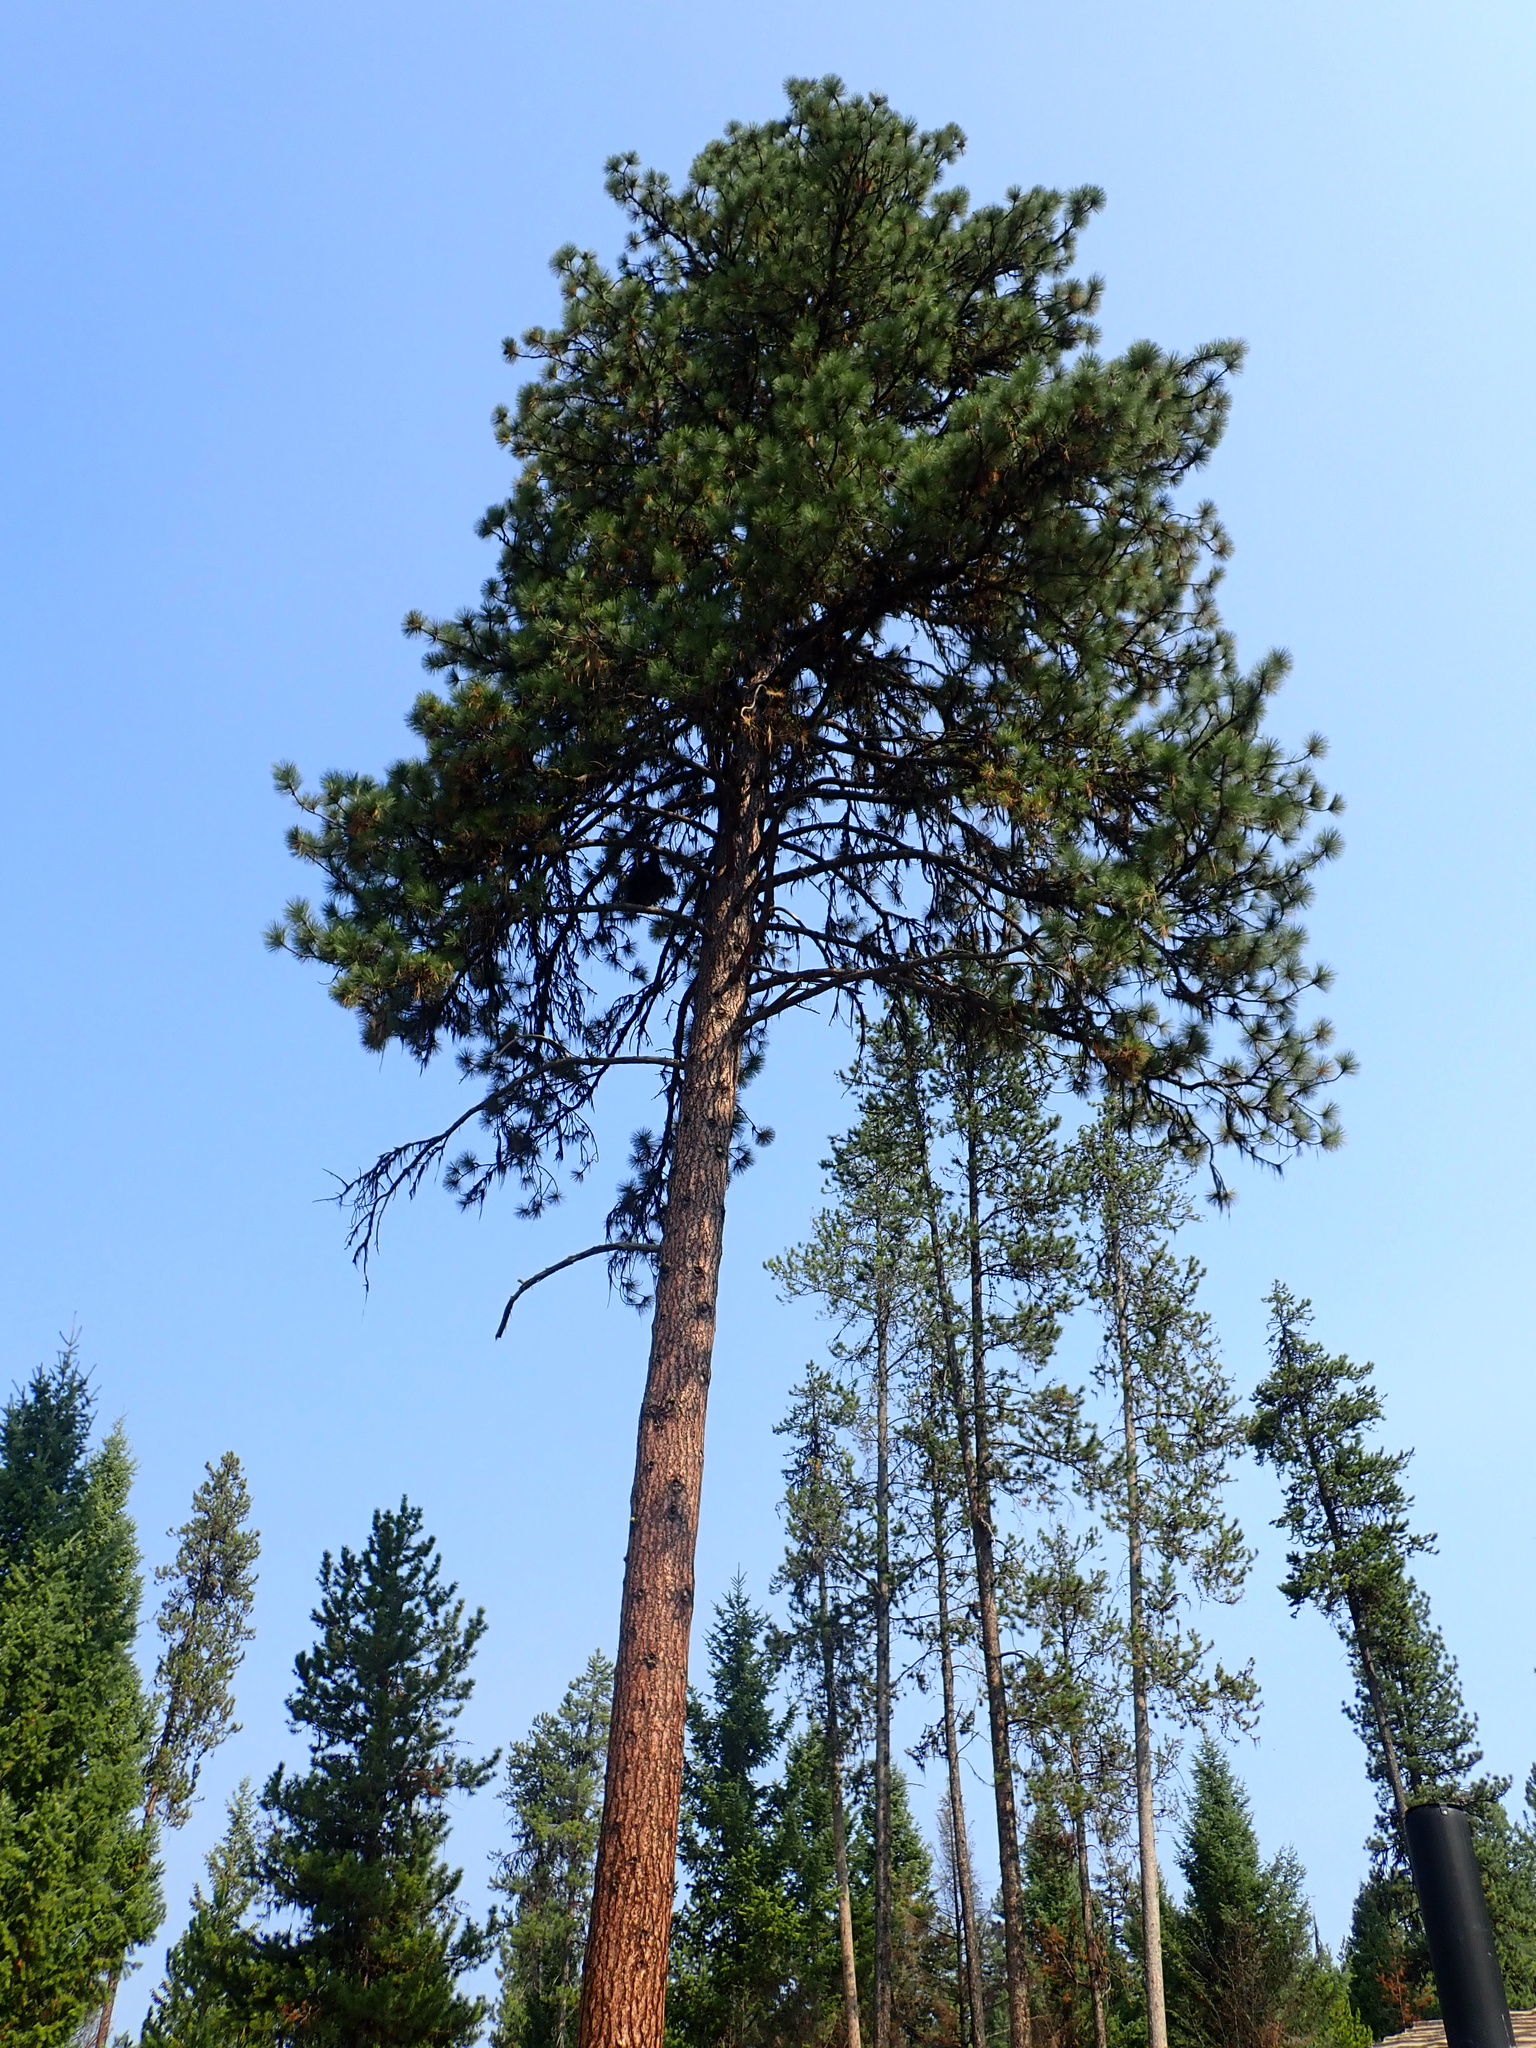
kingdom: Plantae
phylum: Tracheophyta
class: Pinopsida
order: Pinales
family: Pinaceae
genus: Pinus
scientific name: Pinus ponderosa
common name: Western yellow-pine
